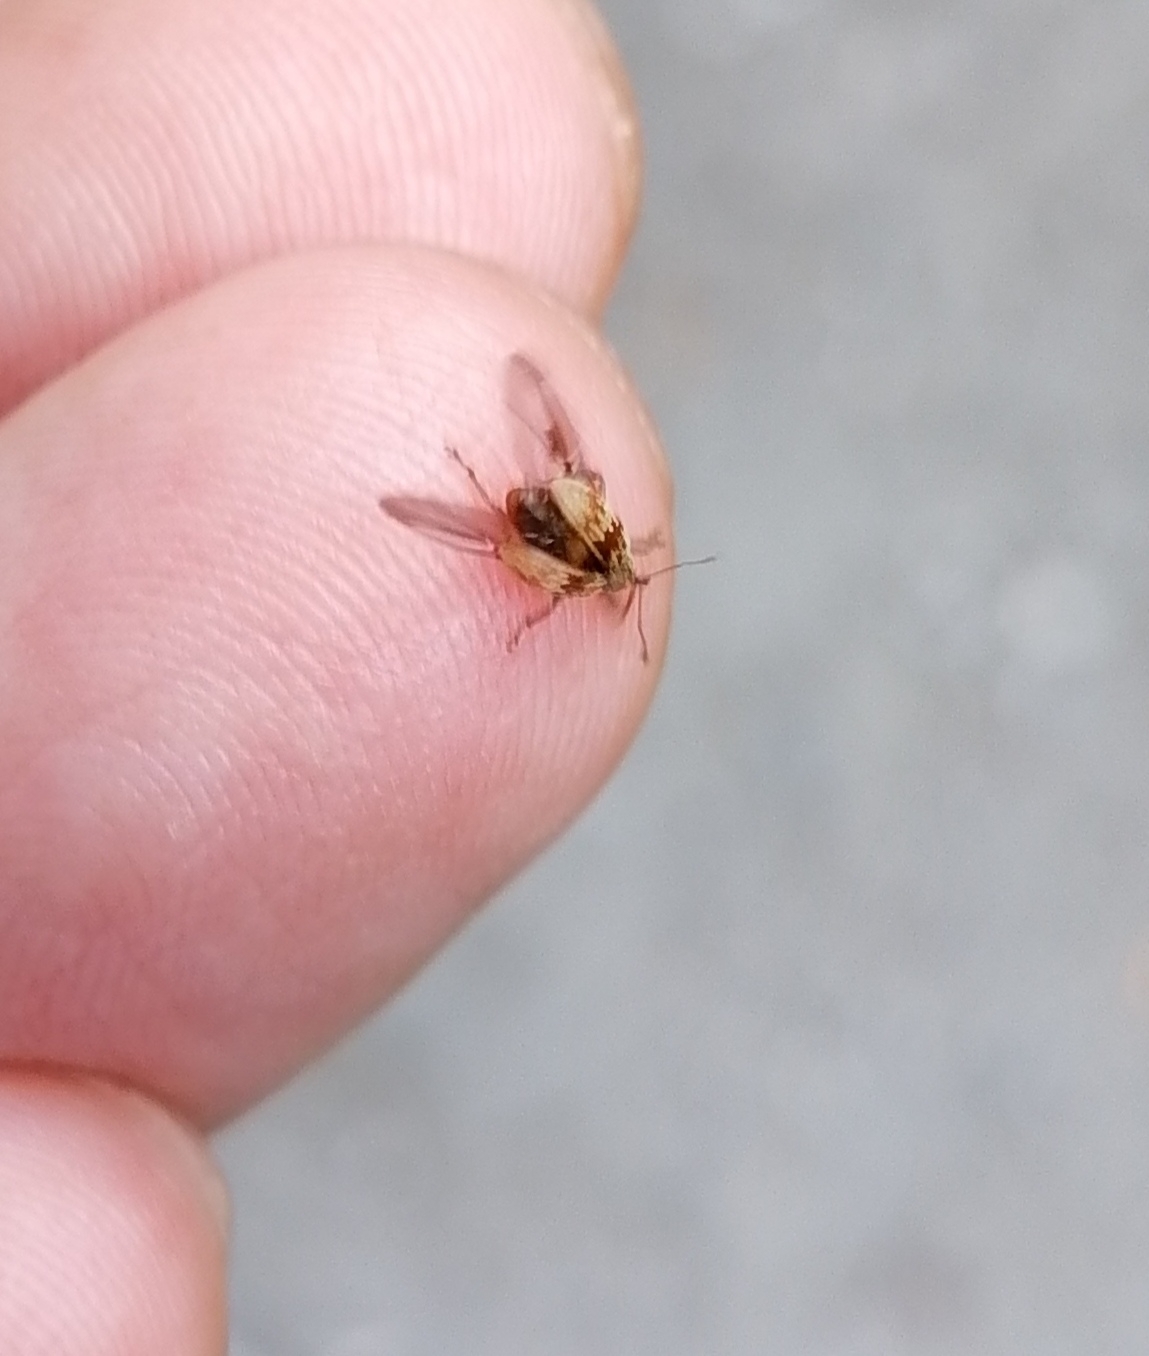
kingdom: Animalia
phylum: Arthropoda
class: Insecta
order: Coleoptera
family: Curculionidae
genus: Anthonomus
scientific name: Anthonomus rectirostris
